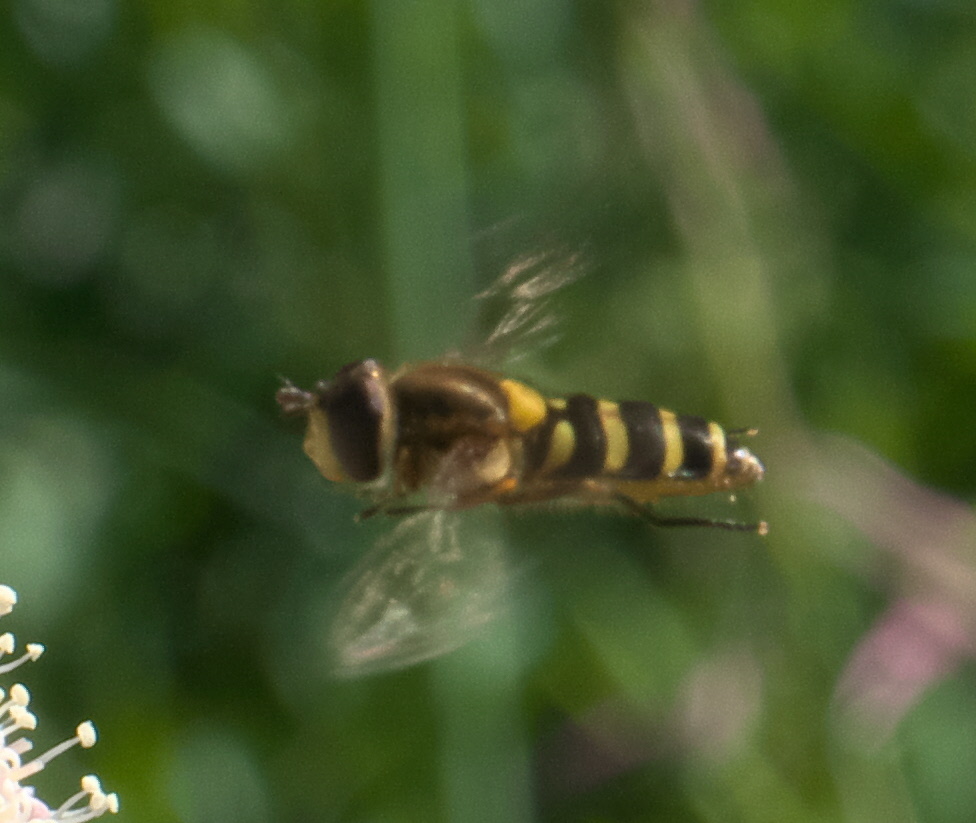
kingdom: Animalia
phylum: Arthropoda
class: Insecta
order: Diptera
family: Syrphidae
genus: Syrphus
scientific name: Syrphus opinator
